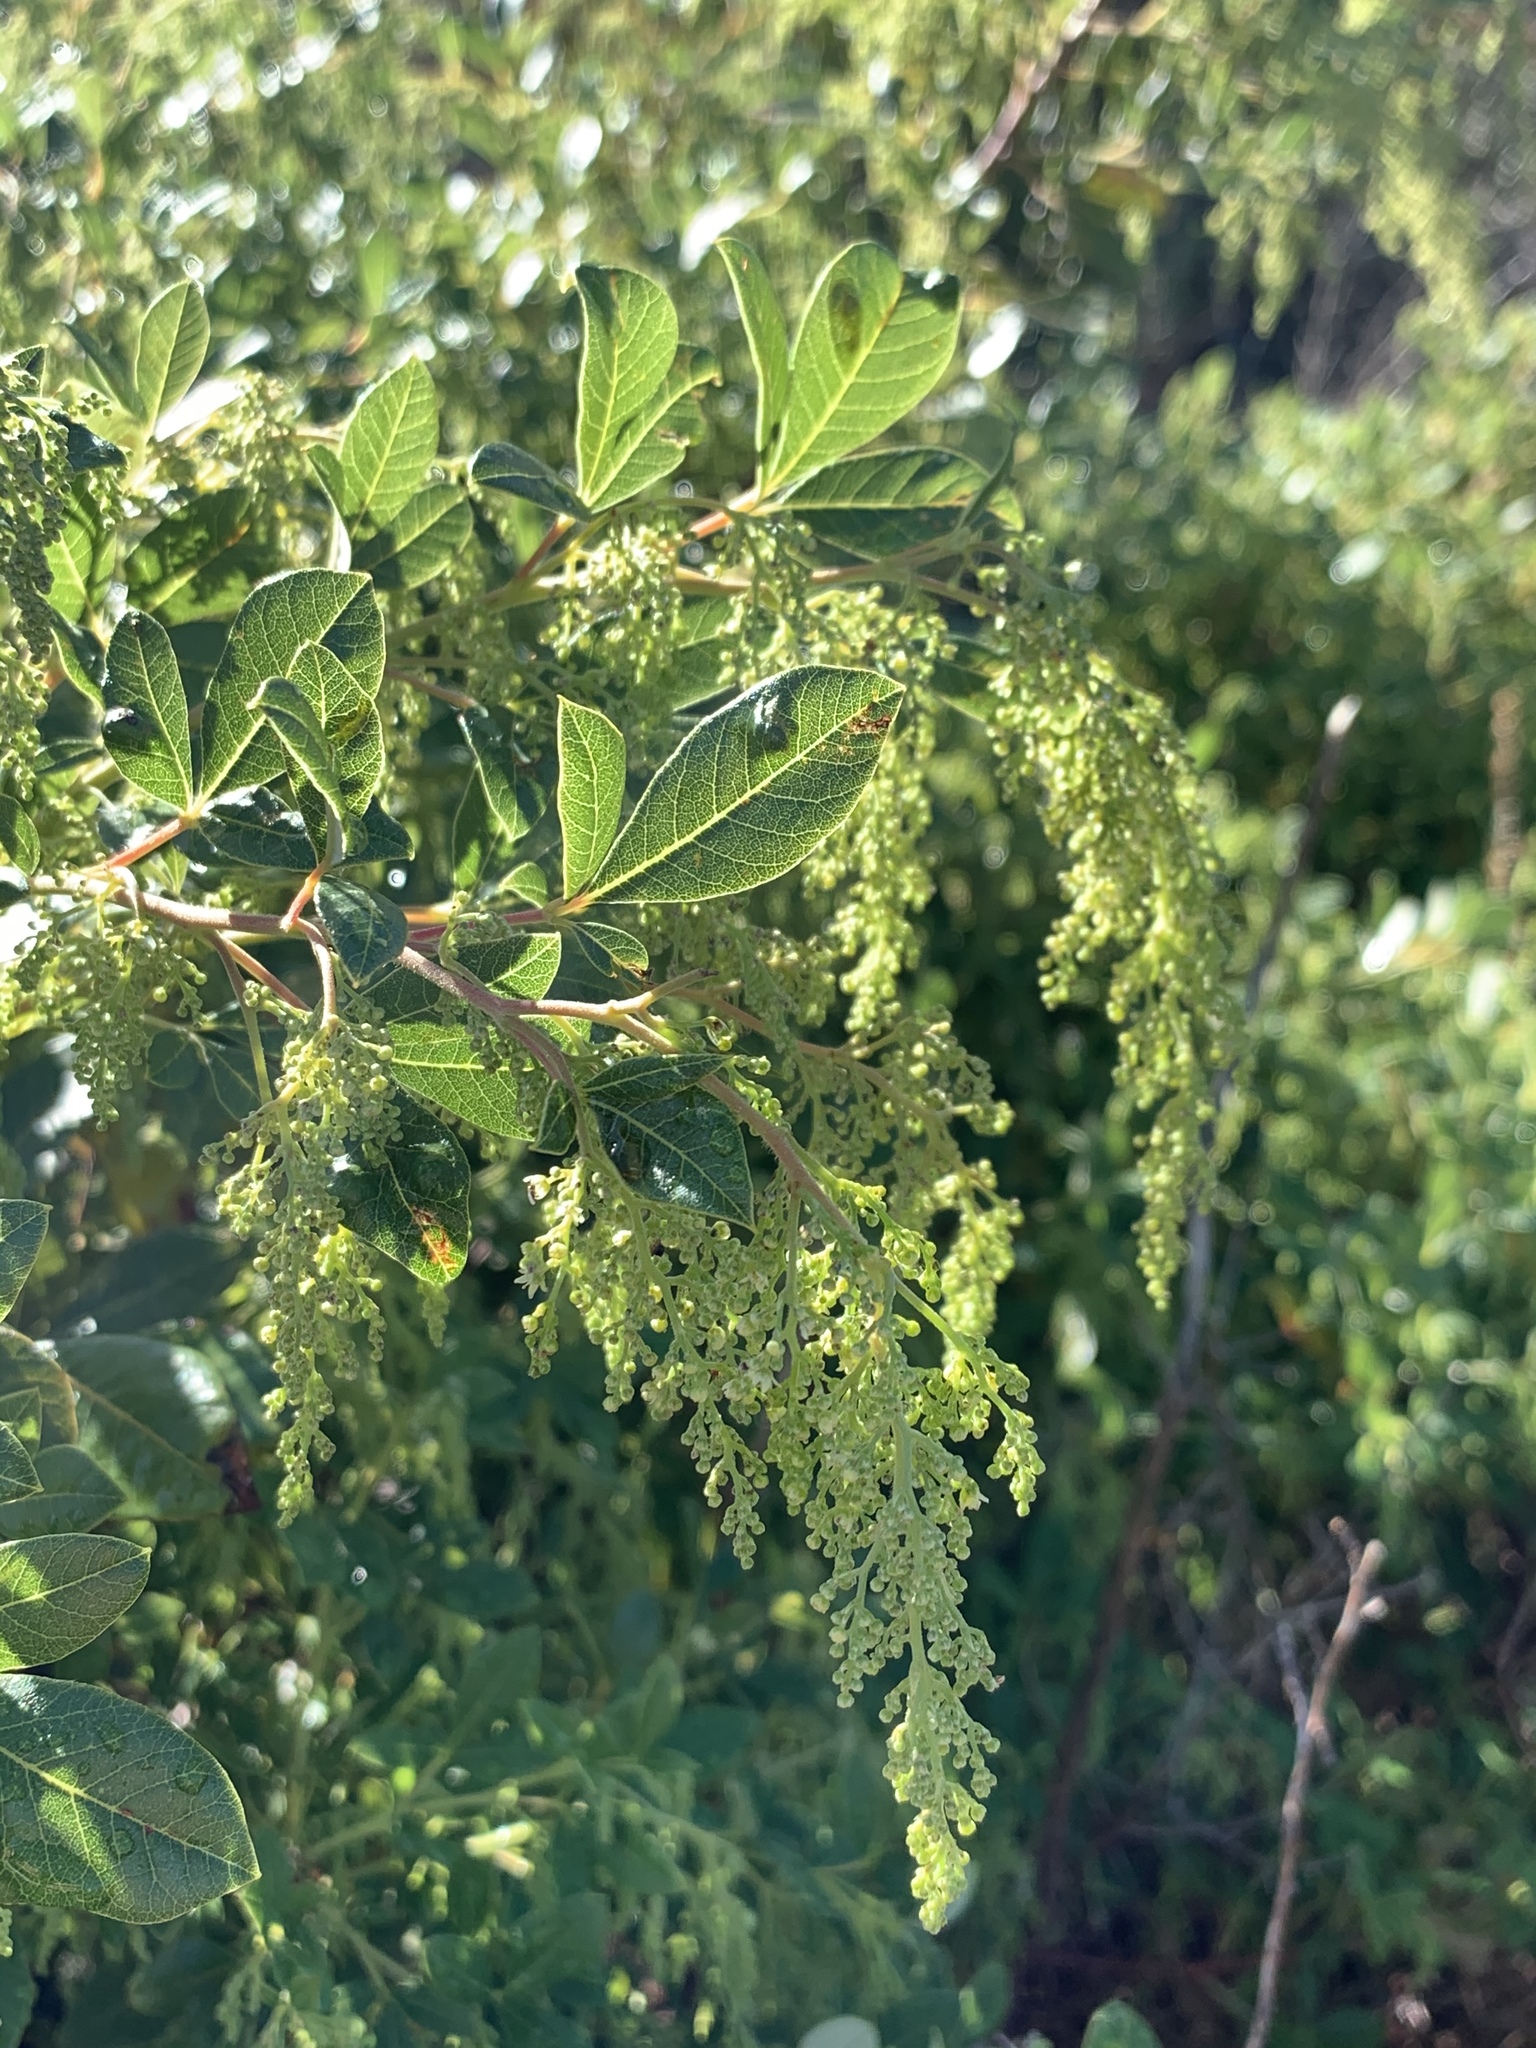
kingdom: Plantae
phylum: Tracheophyta
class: Magnoliopsida
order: Sapindales
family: Anacardiaceae
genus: Searsia
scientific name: Searsia tomentosa
